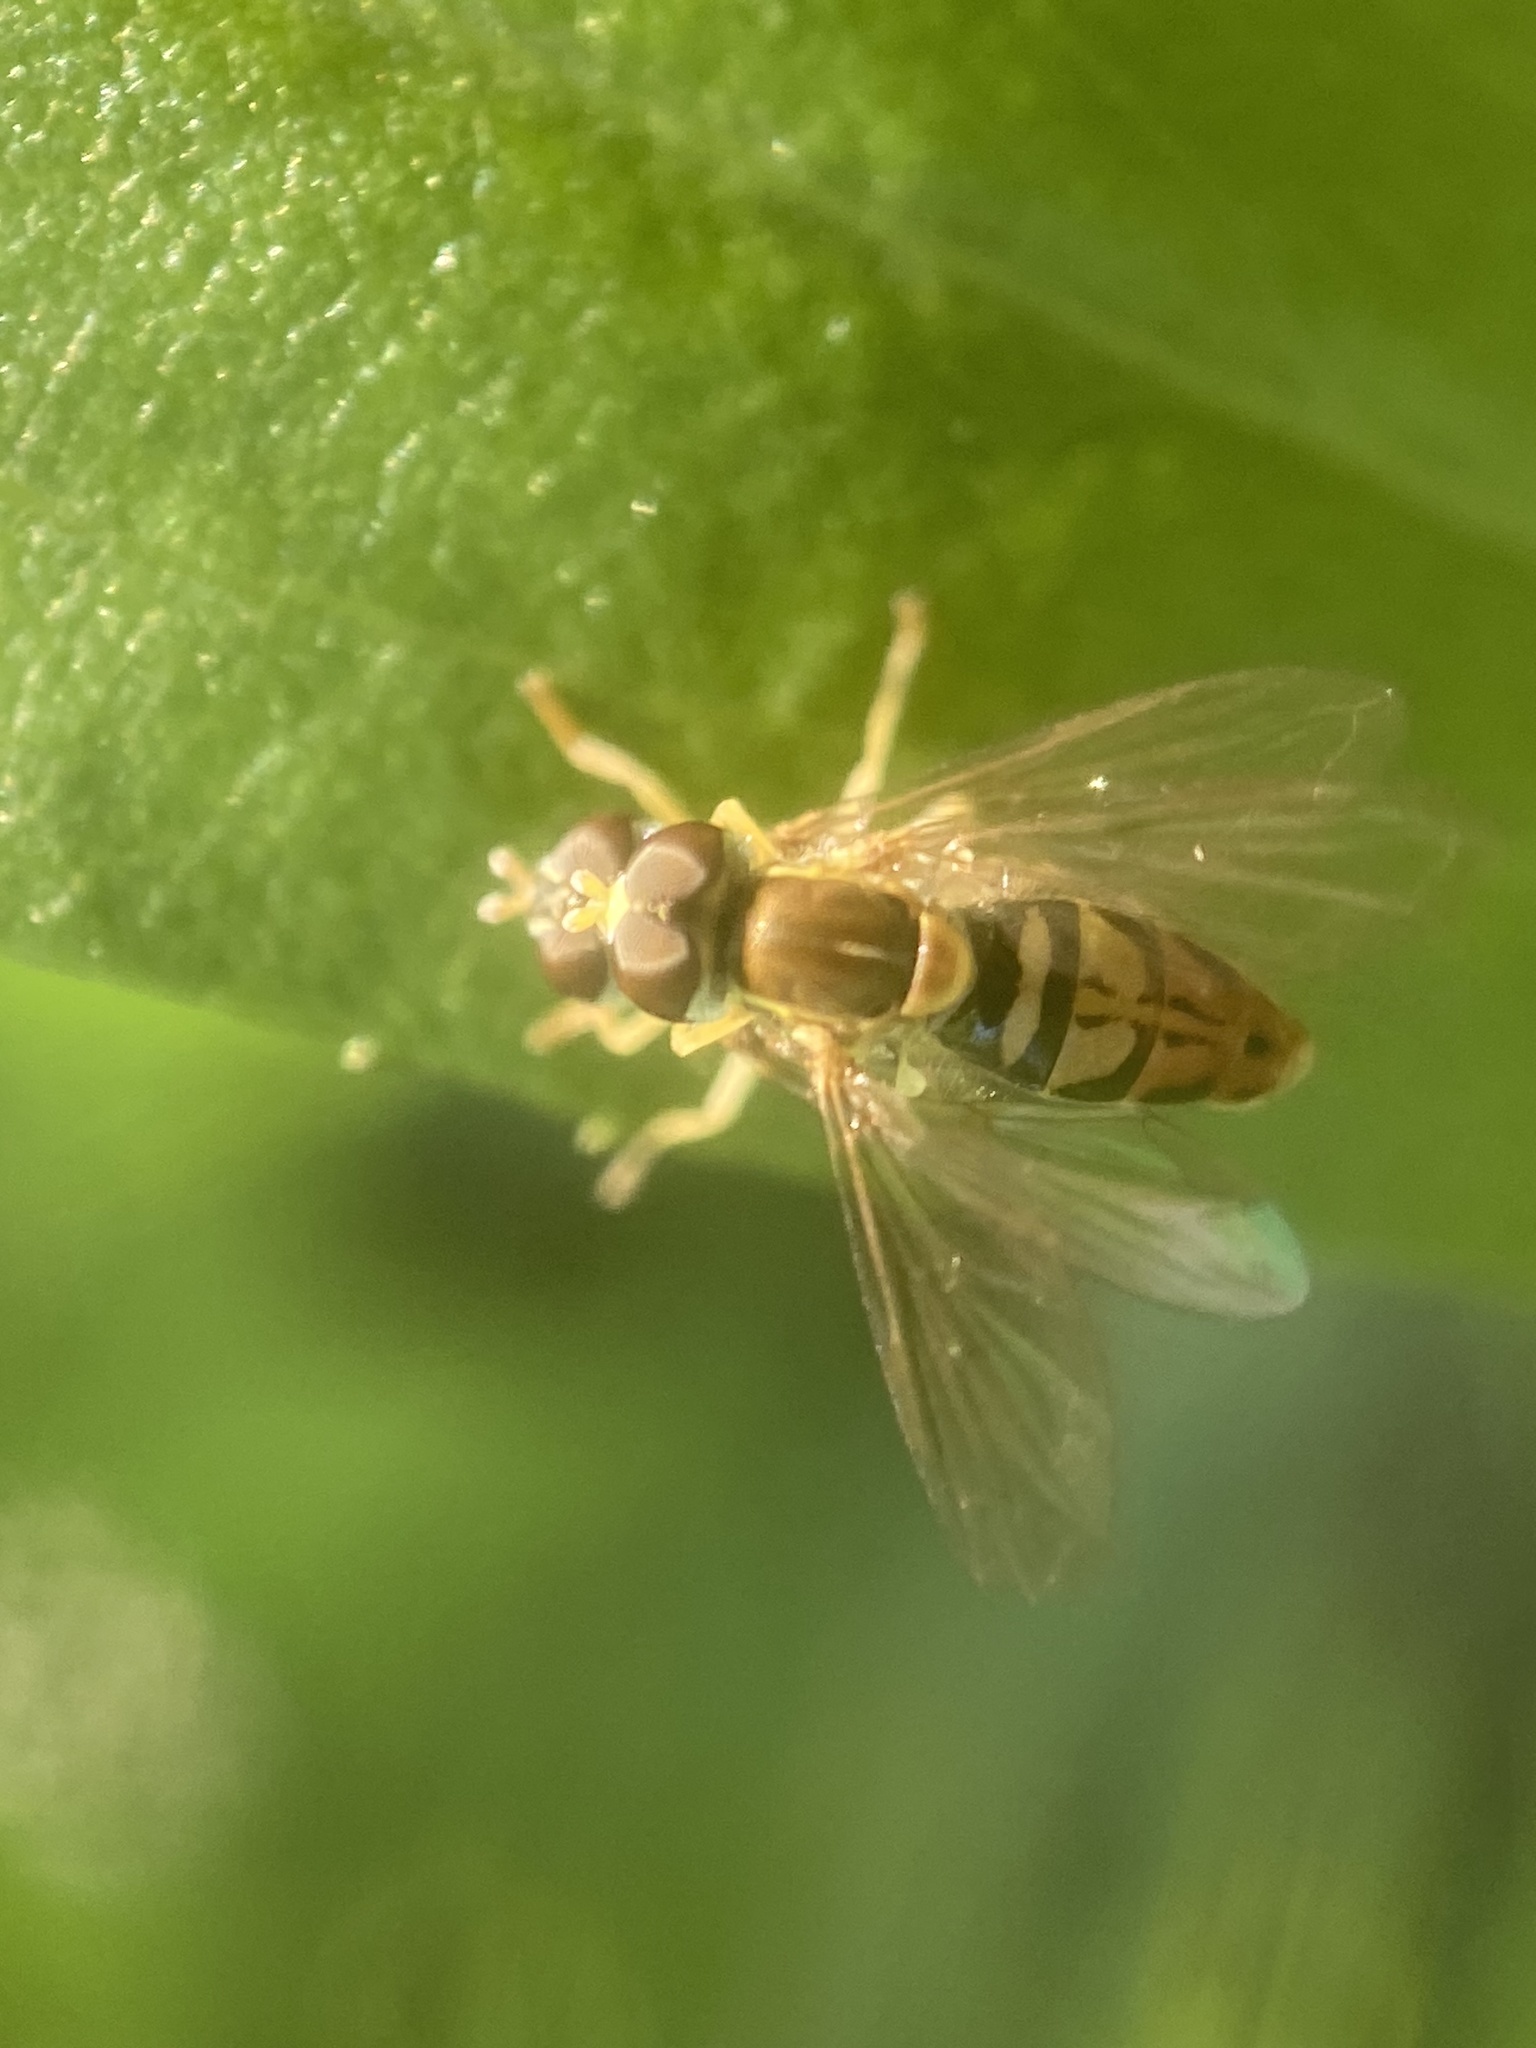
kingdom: Animalia
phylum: Arthropoda
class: Insecta
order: Diptera
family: Syrphidae
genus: Toxomerus
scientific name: Toxomerus marginatus
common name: Syrphid fly
